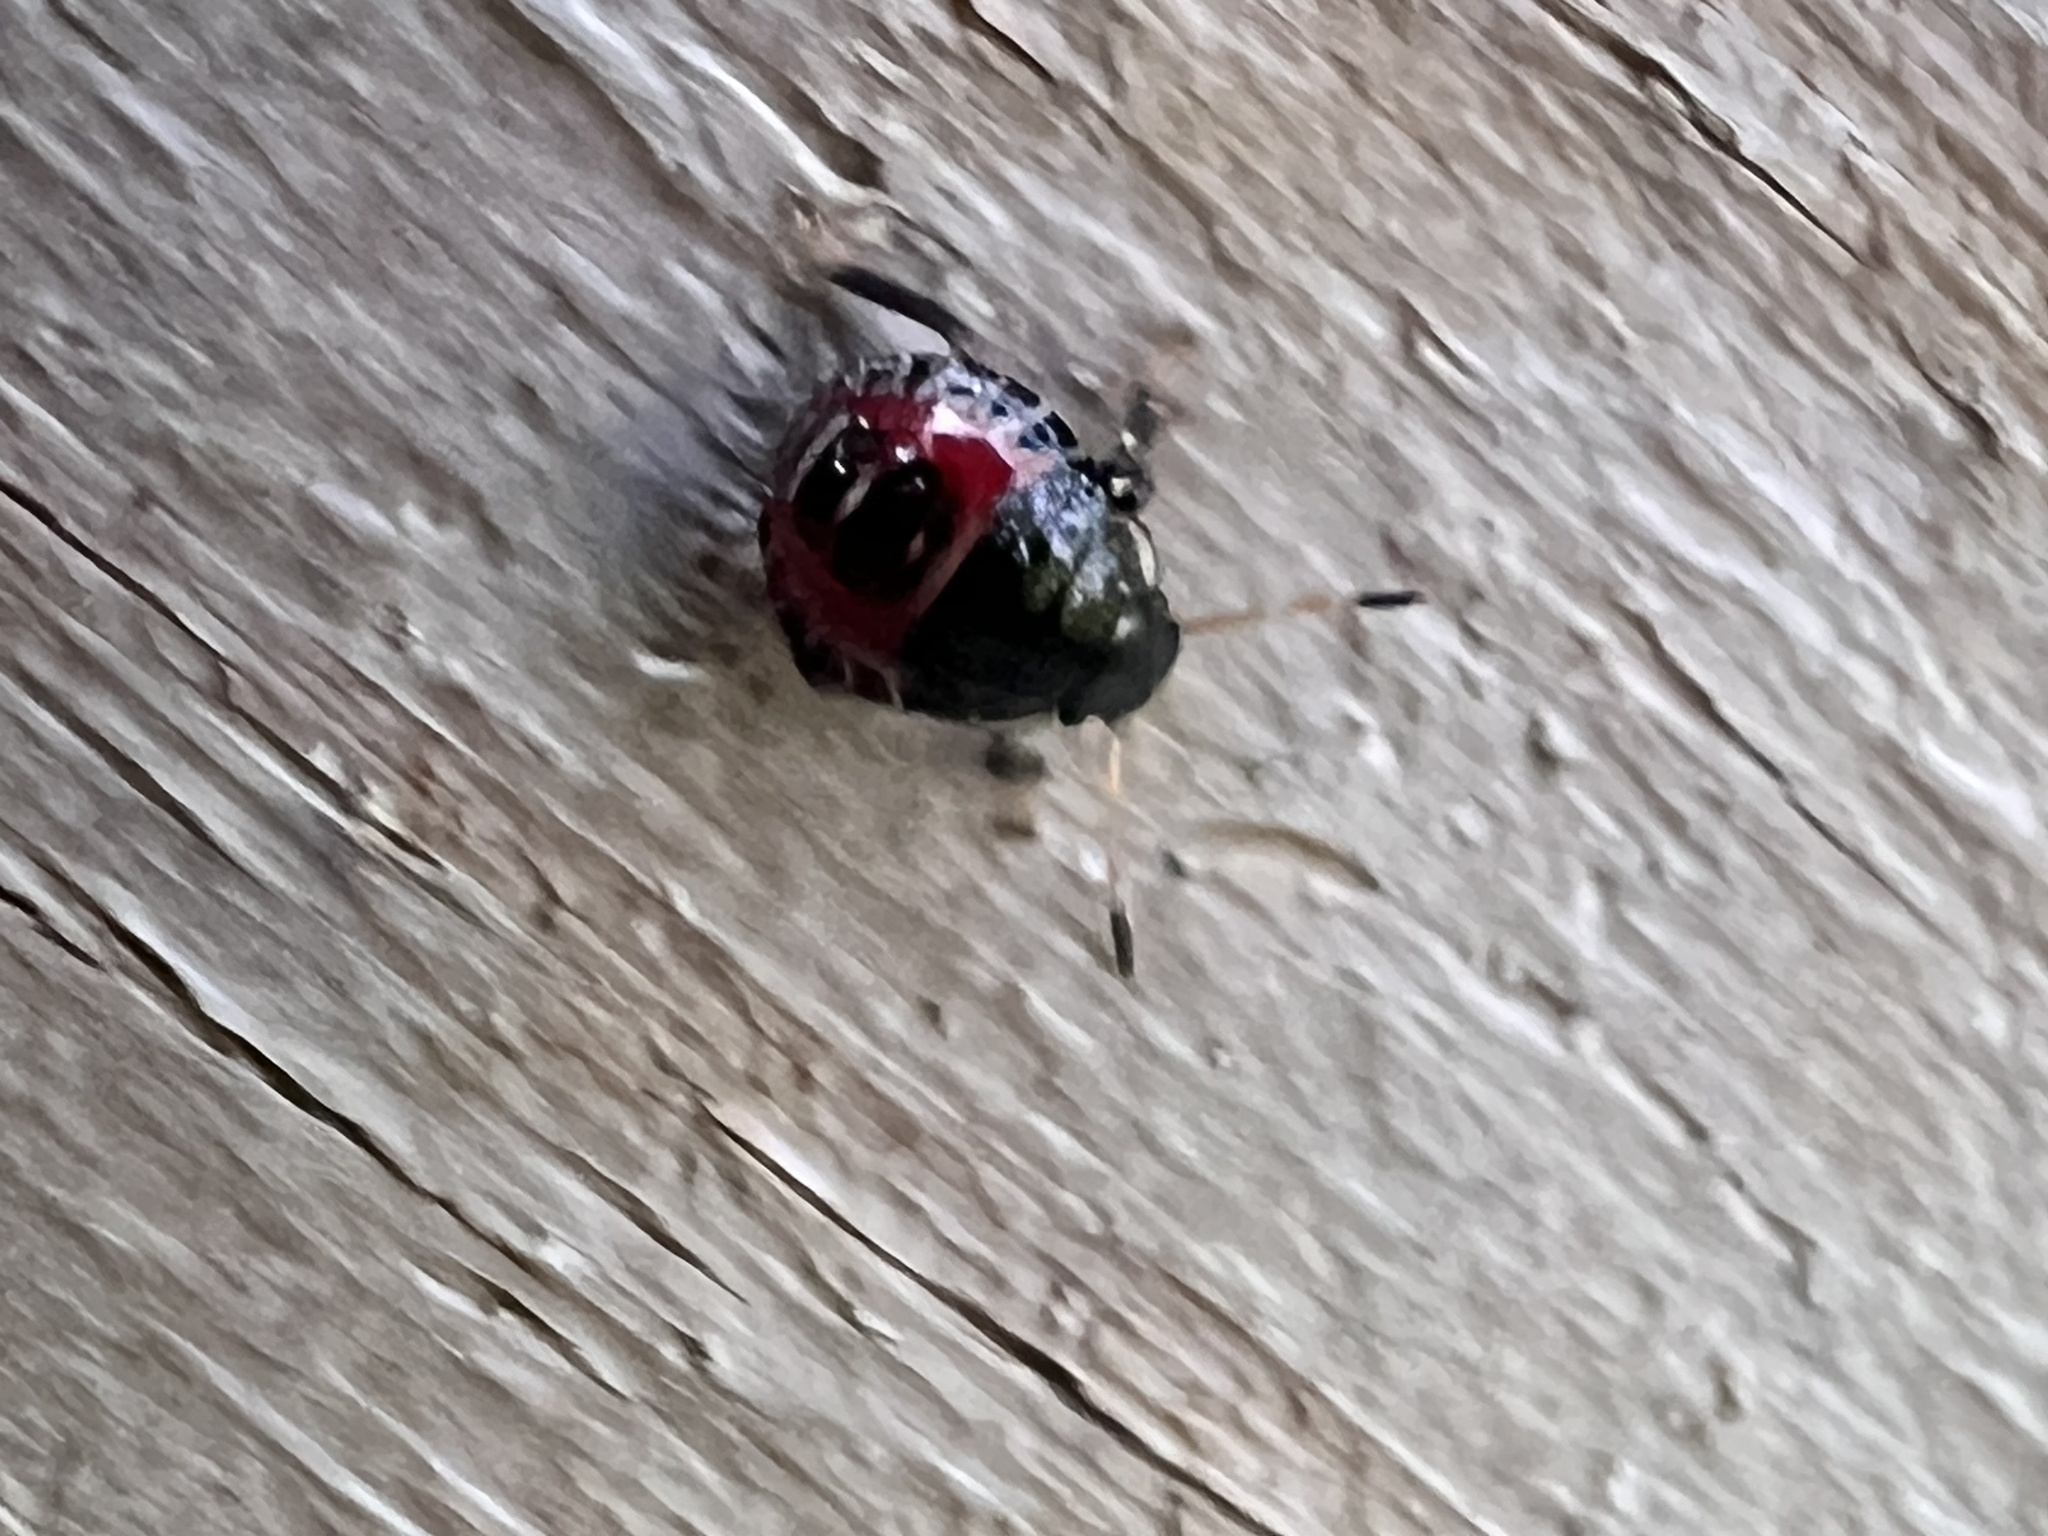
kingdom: Animalia
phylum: Arthropoda
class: Insecta
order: Hemiptera
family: Pentatomidae
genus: Podisus
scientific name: Podisus placidus
